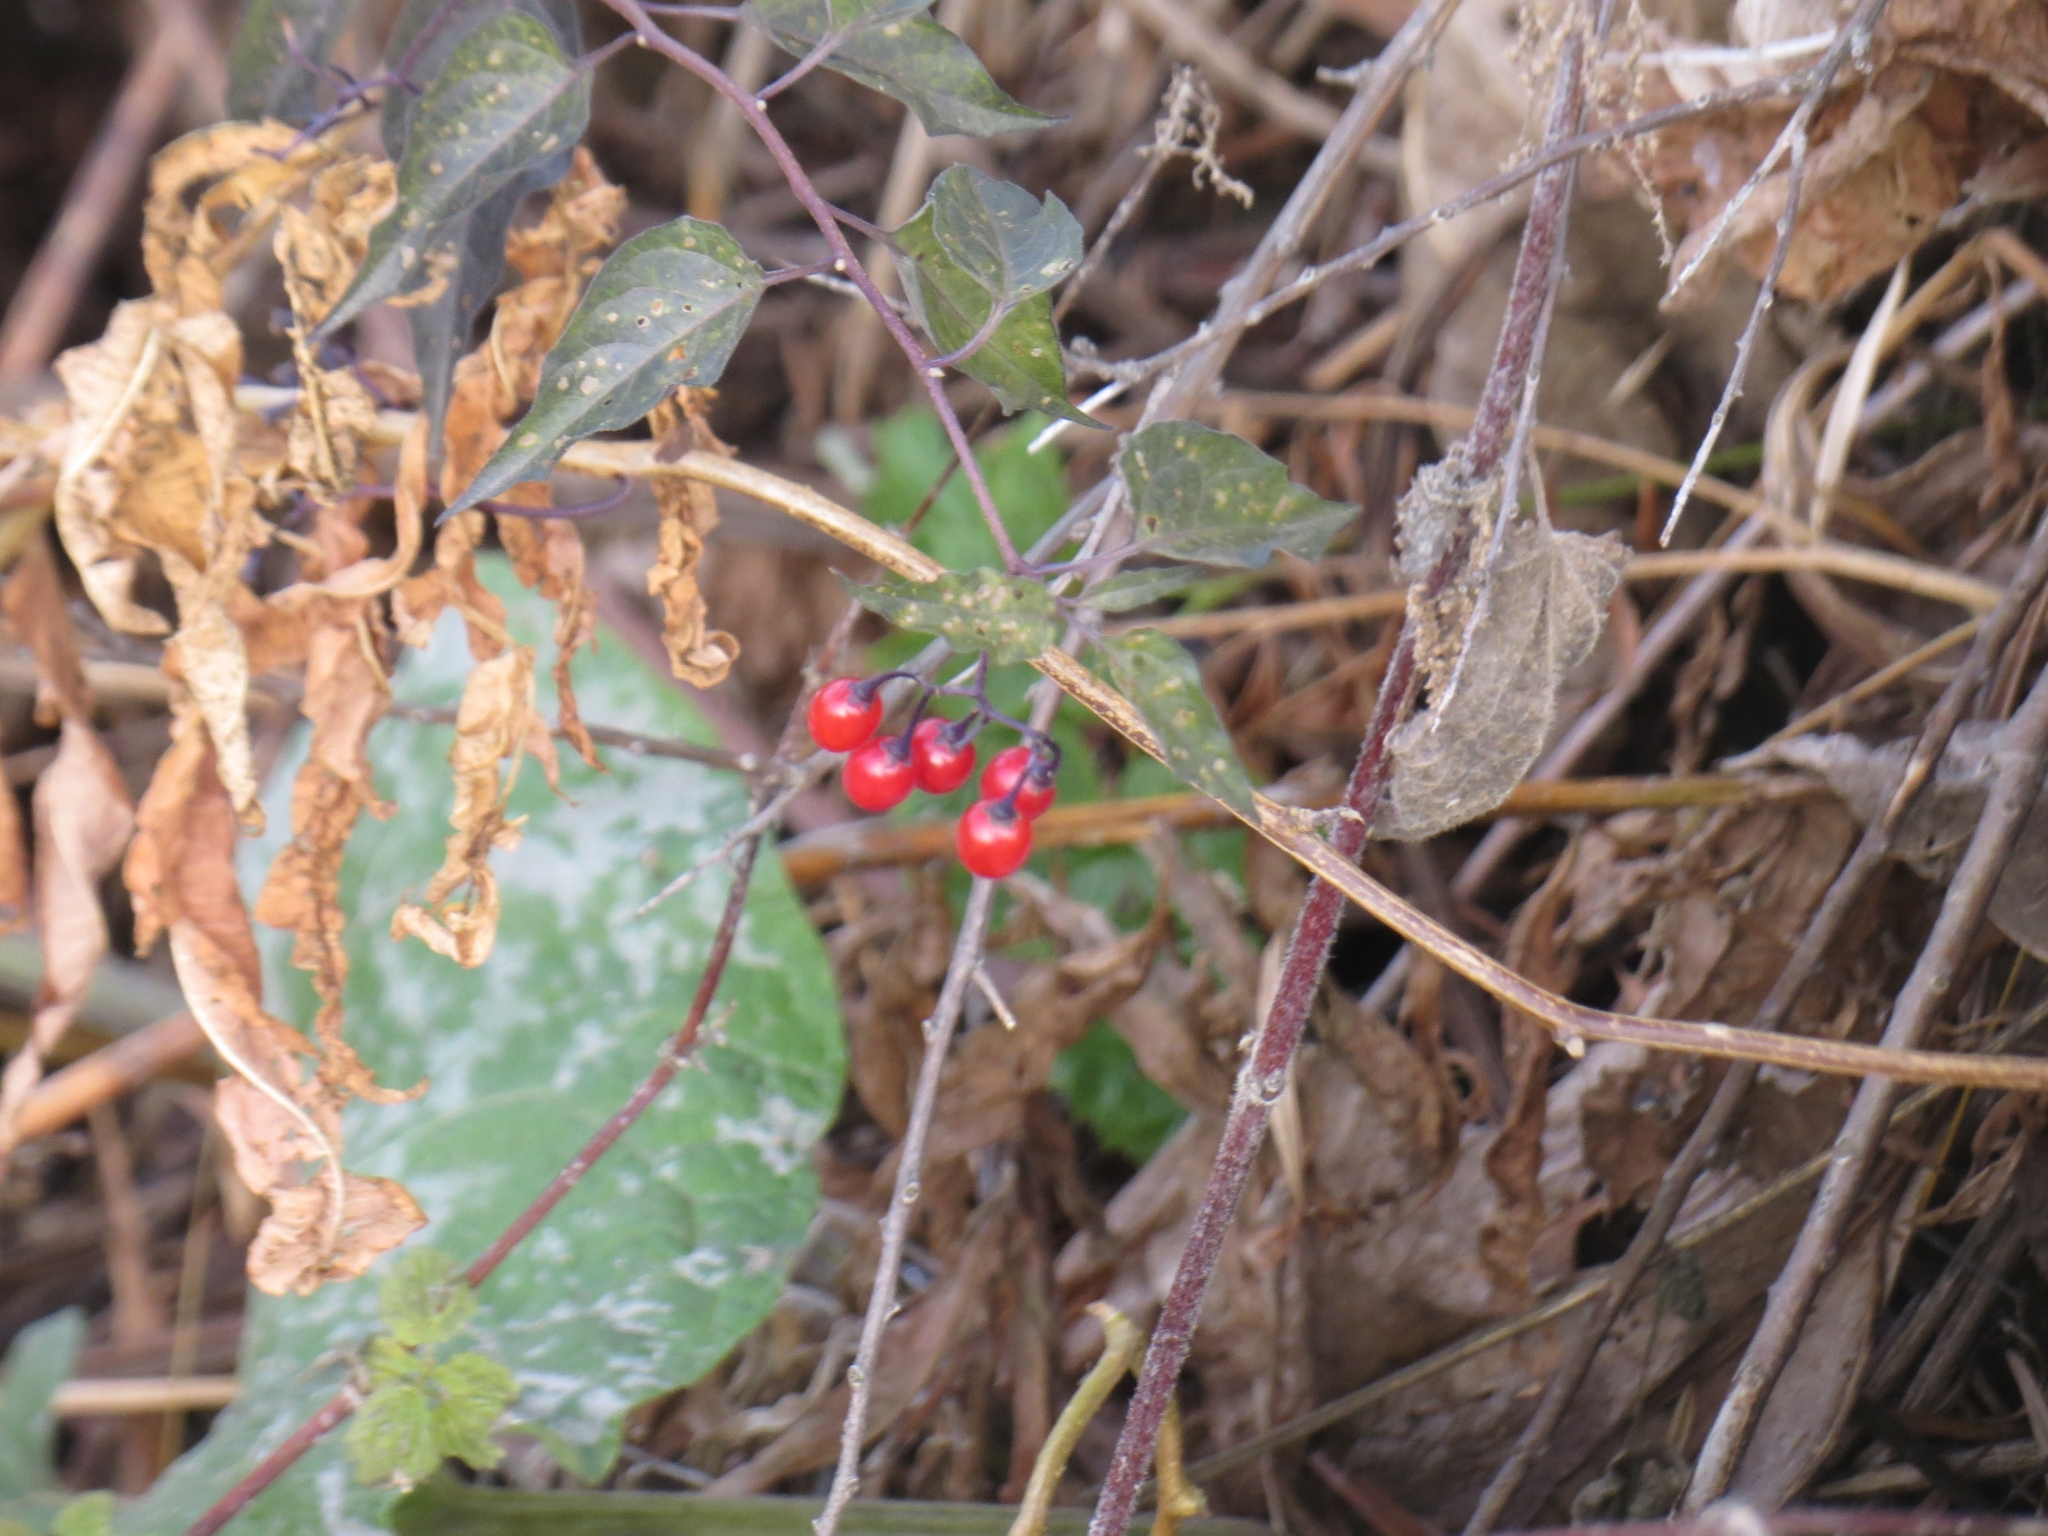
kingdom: Plantae
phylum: Tracheophyta
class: Magnoliopsida
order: Solanales
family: Solanaceae
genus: Solanum
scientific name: Solanum dulcamara
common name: Climbing nightshade
